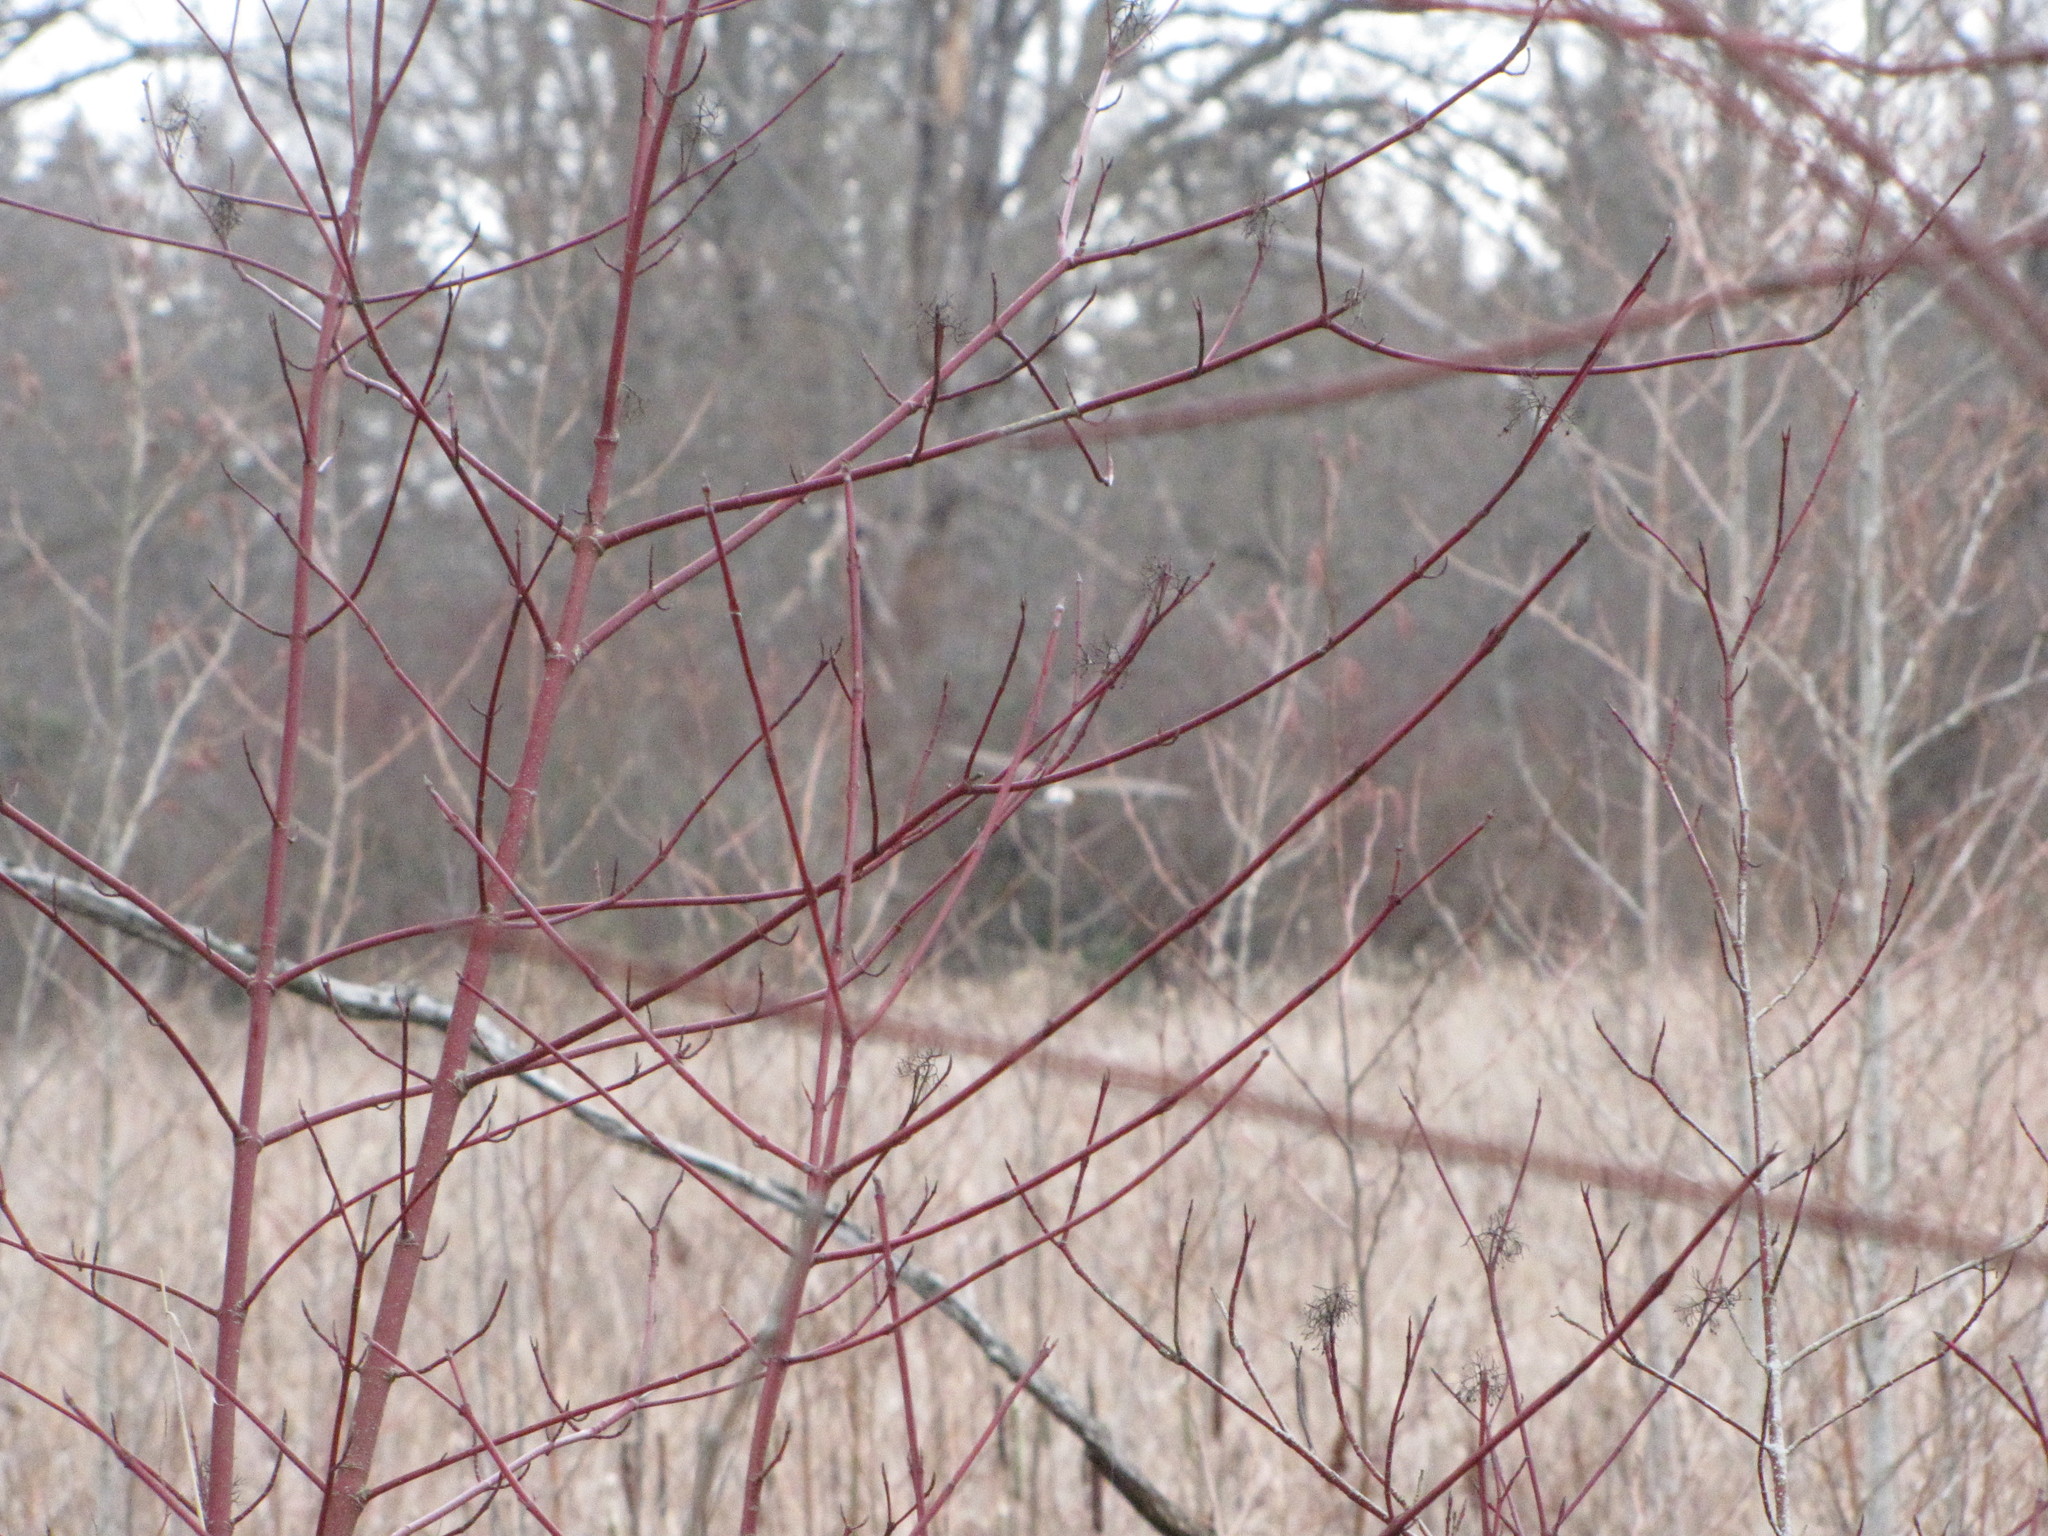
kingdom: Animalia
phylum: Chordata
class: Aves
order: Accipitriformes
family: Accipitridae
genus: Circus
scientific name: Circus cyaneus
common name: Hen harrier
